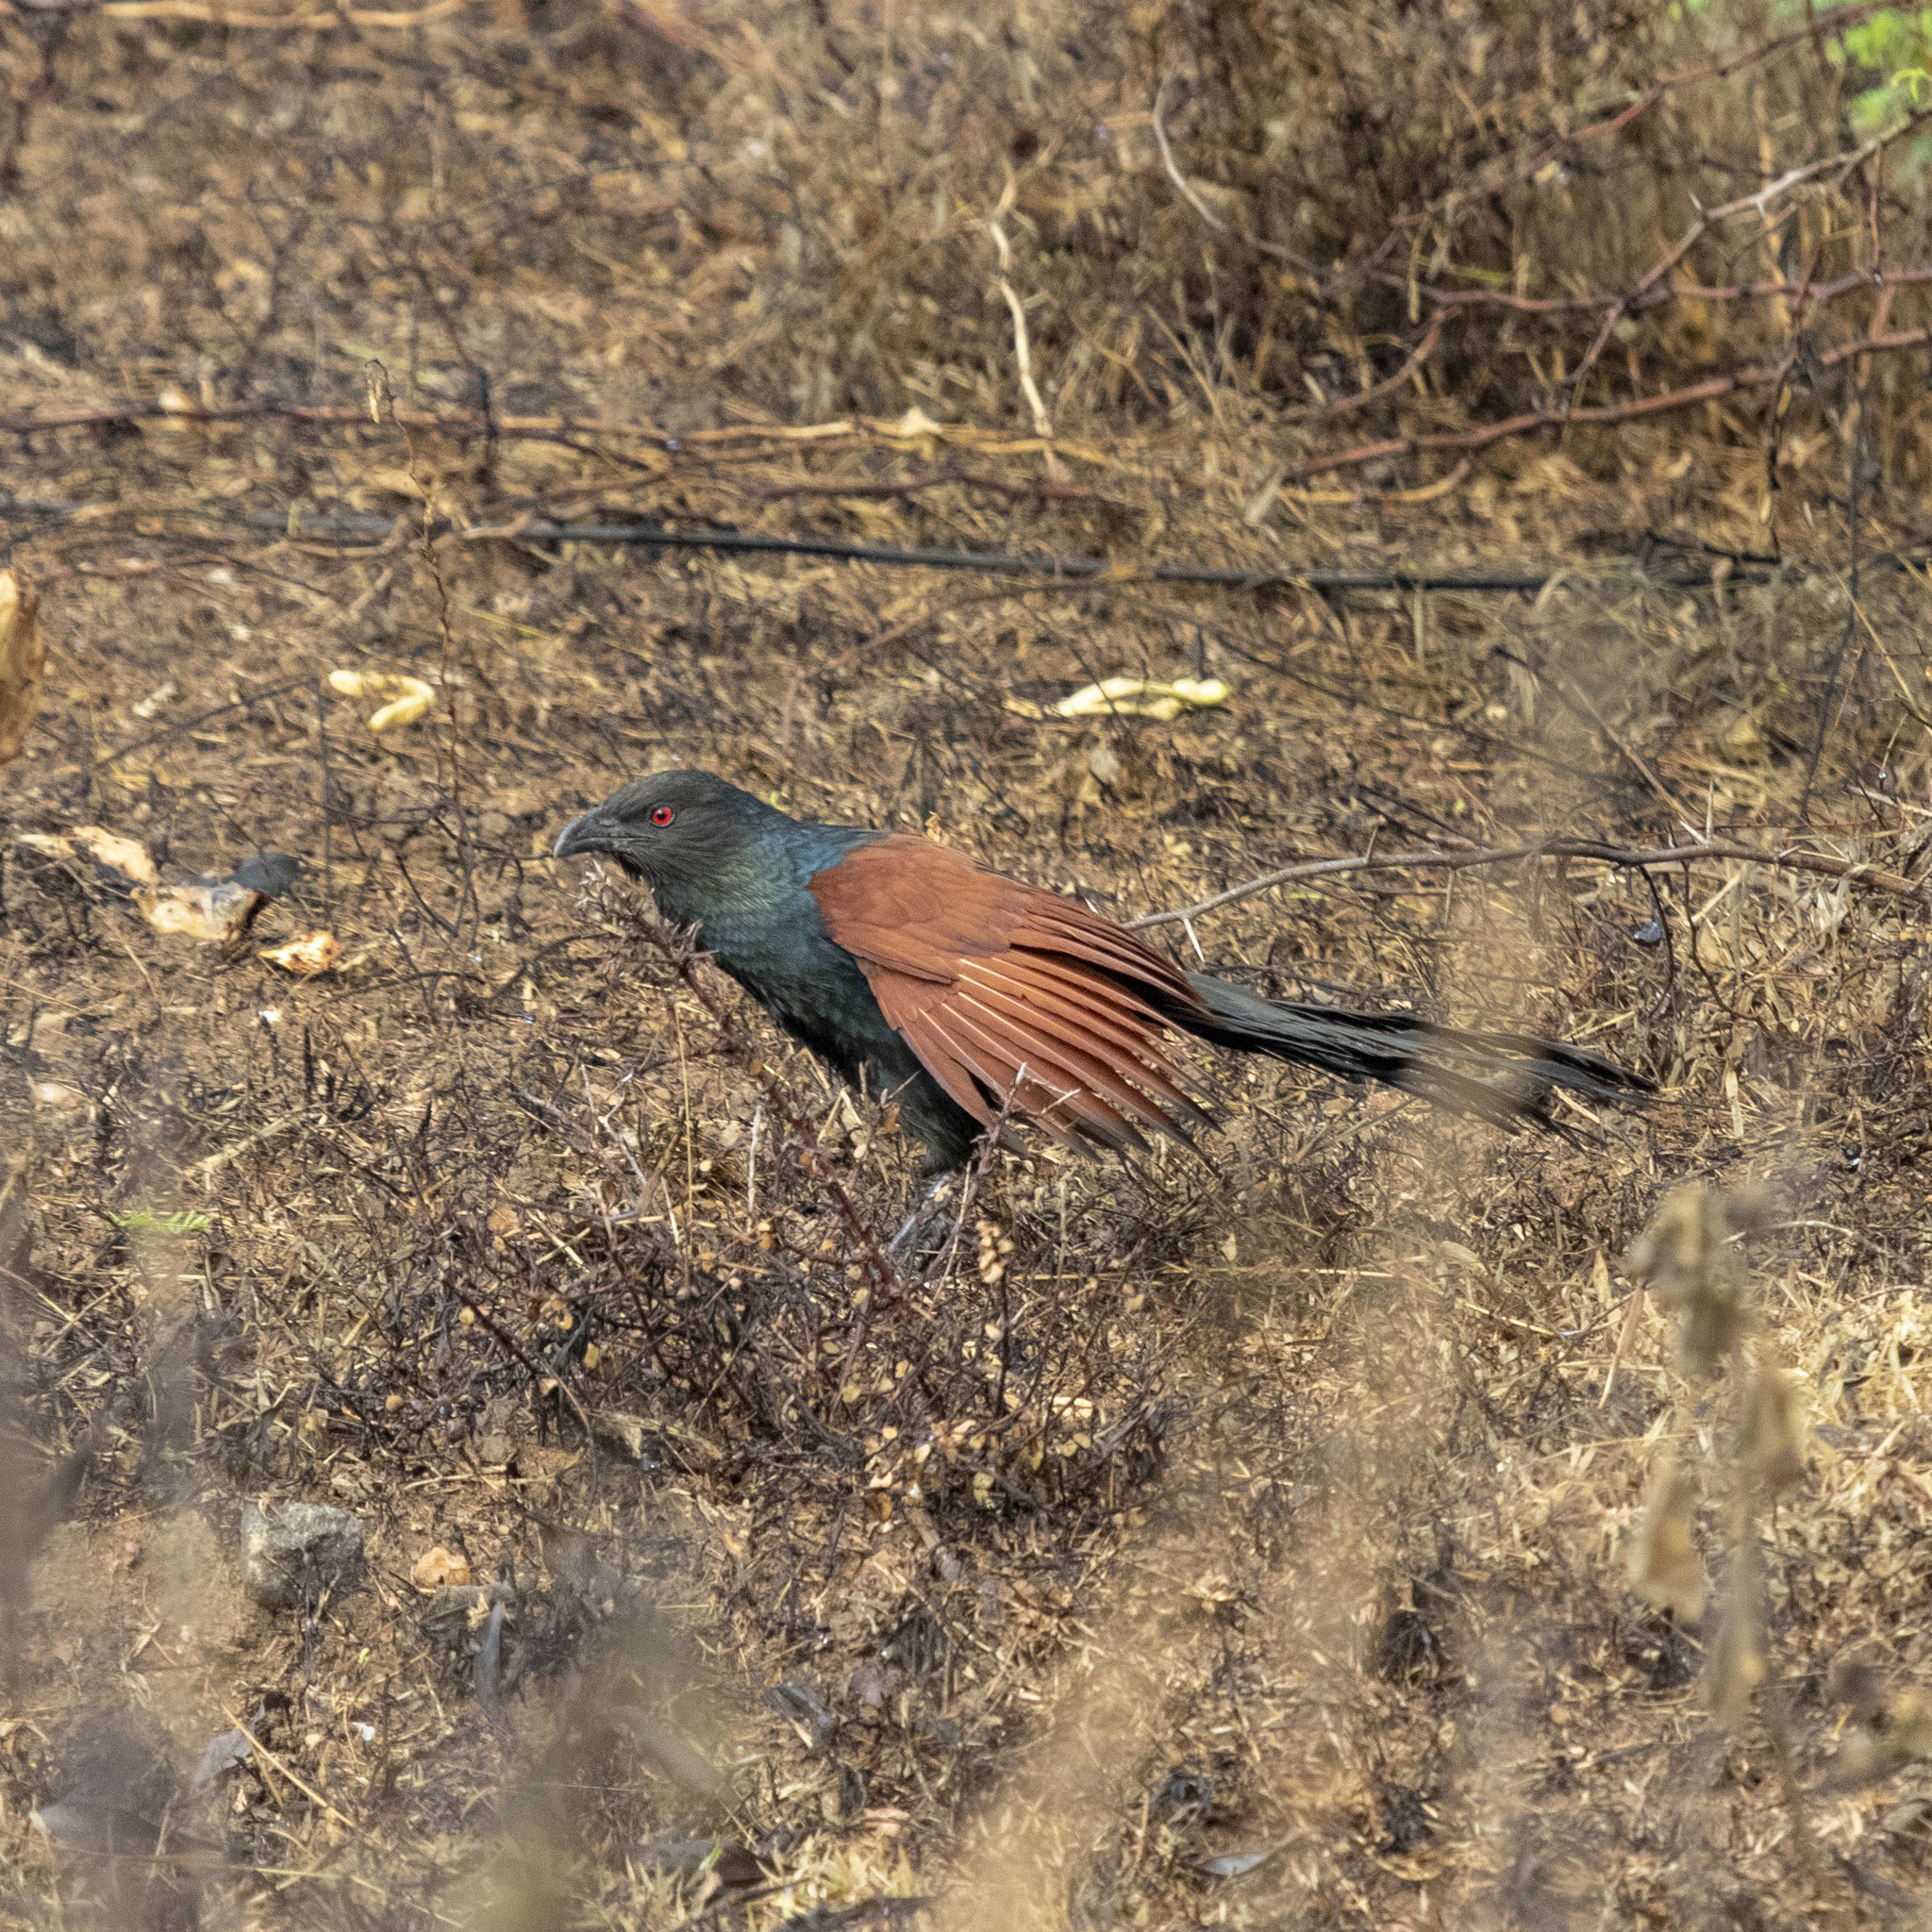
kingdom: Animalia
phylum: Chordata
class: Aves
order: Cuculiformes
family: Cuculidae
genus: Centropus
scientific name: Centropus sinensis
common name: Greater coucal
